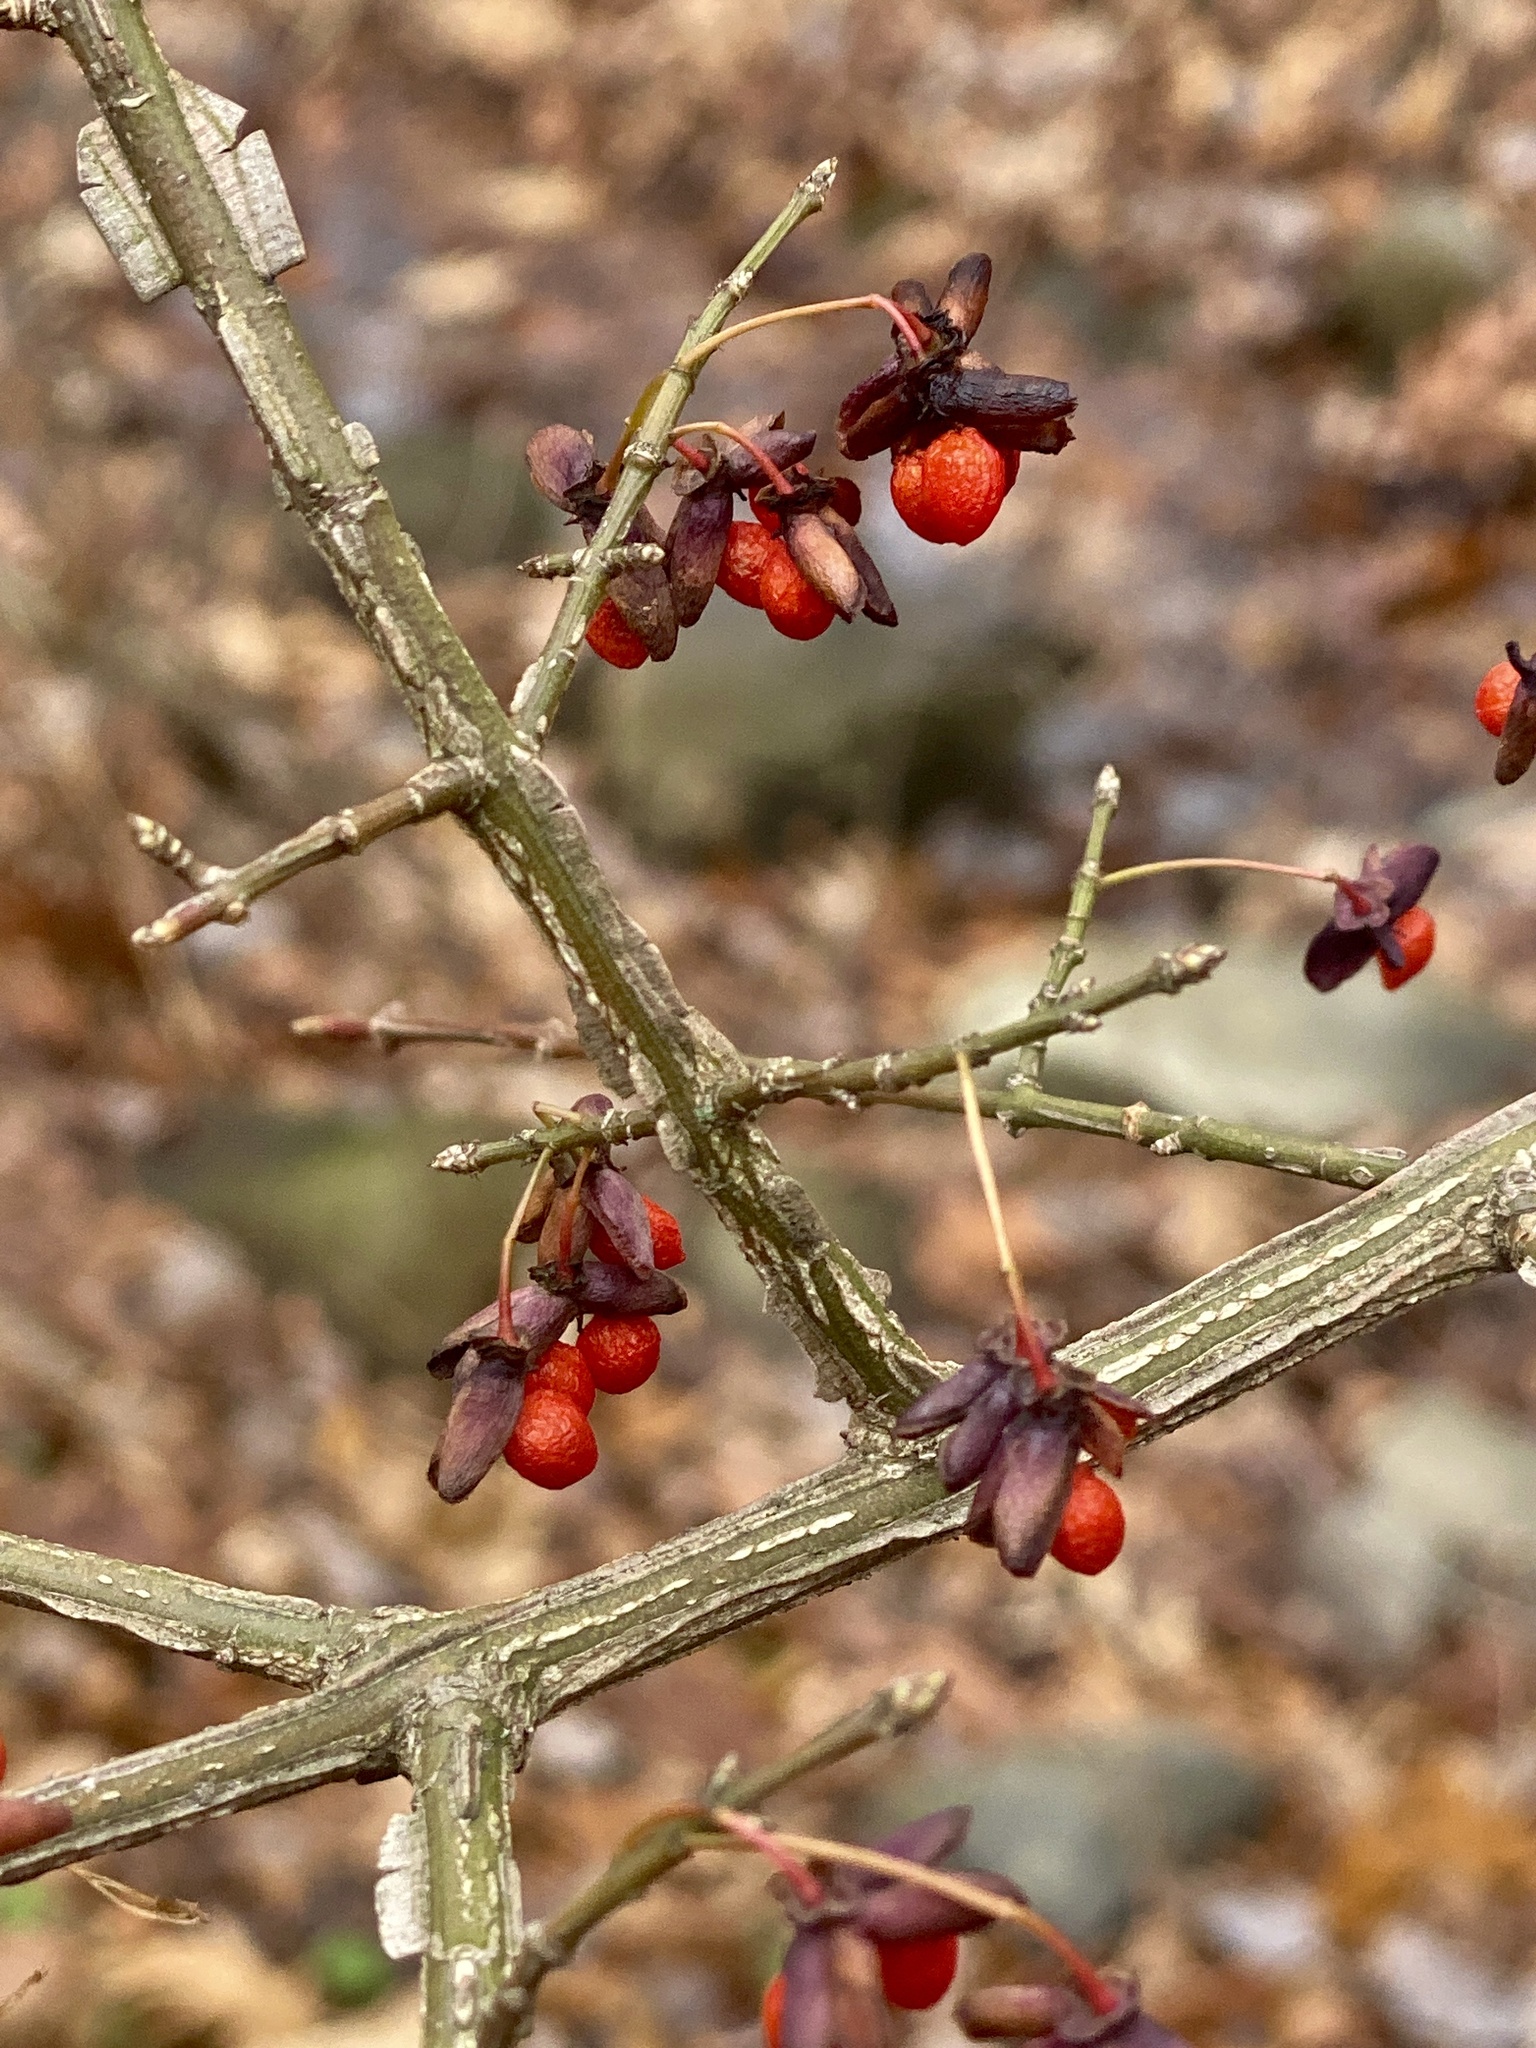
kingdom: Plantae
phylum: Tracheophyta
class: Magnoliopsida
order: Celastrales
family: Celastraceae
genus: Euonymus
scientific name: Euonymus alatus
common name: Winged euonymus
